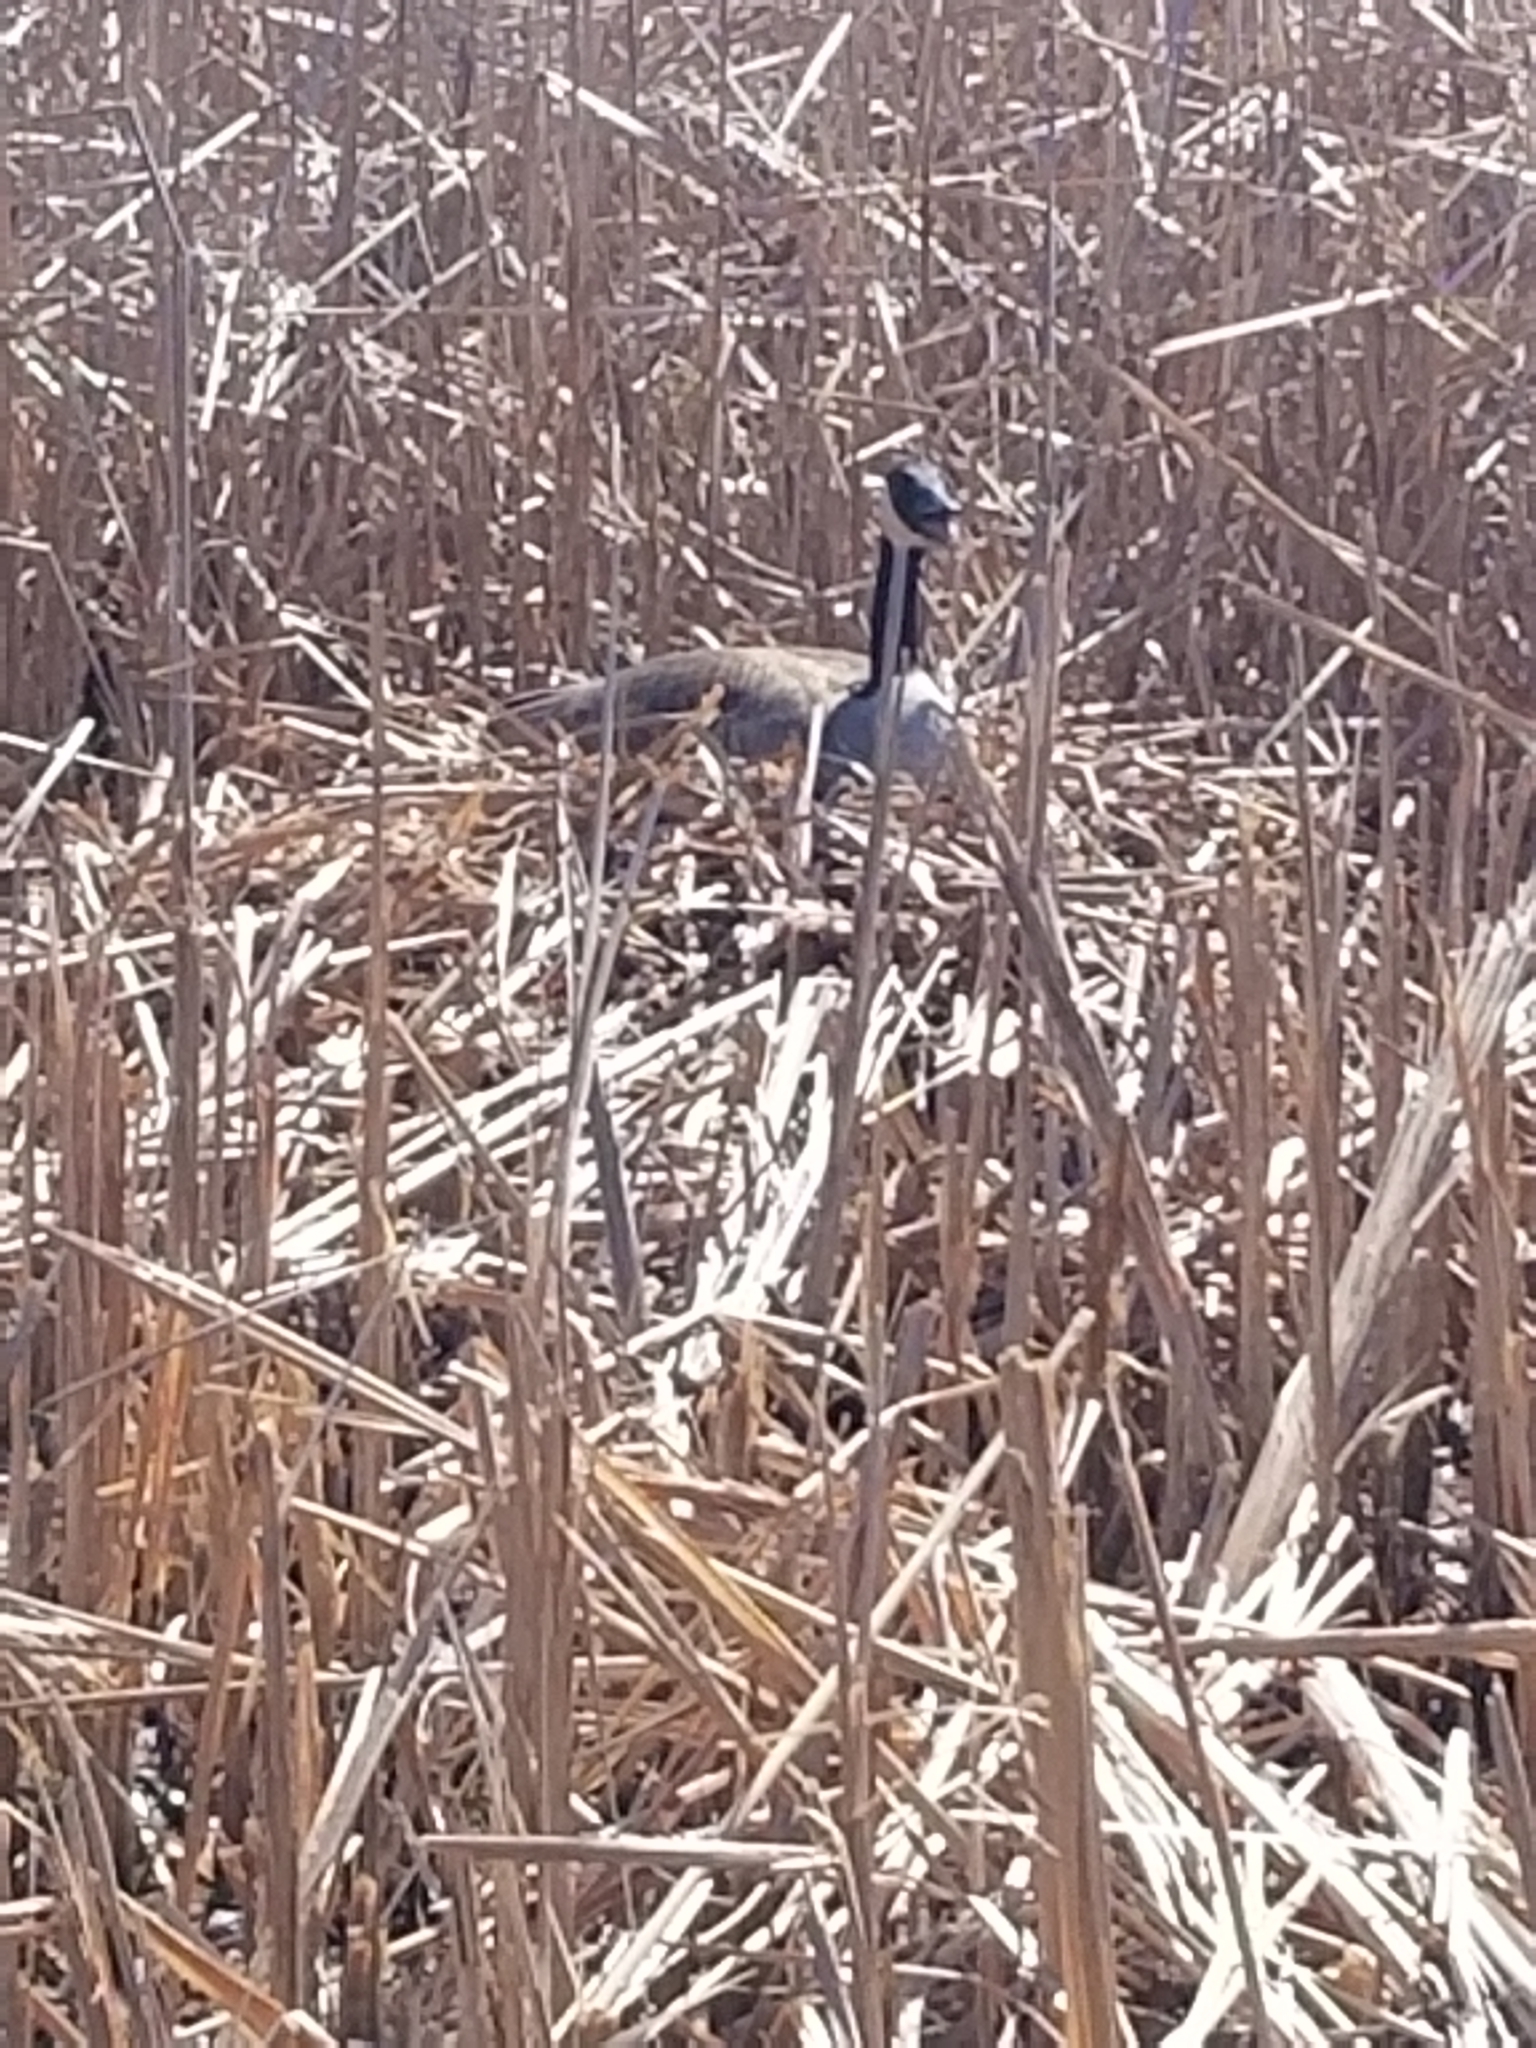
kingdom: Animalia
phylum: Chordata
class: Aves
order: Anseriformes
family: Anatidae
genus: Branta
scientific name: Branta canadensis
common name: Canada goose
